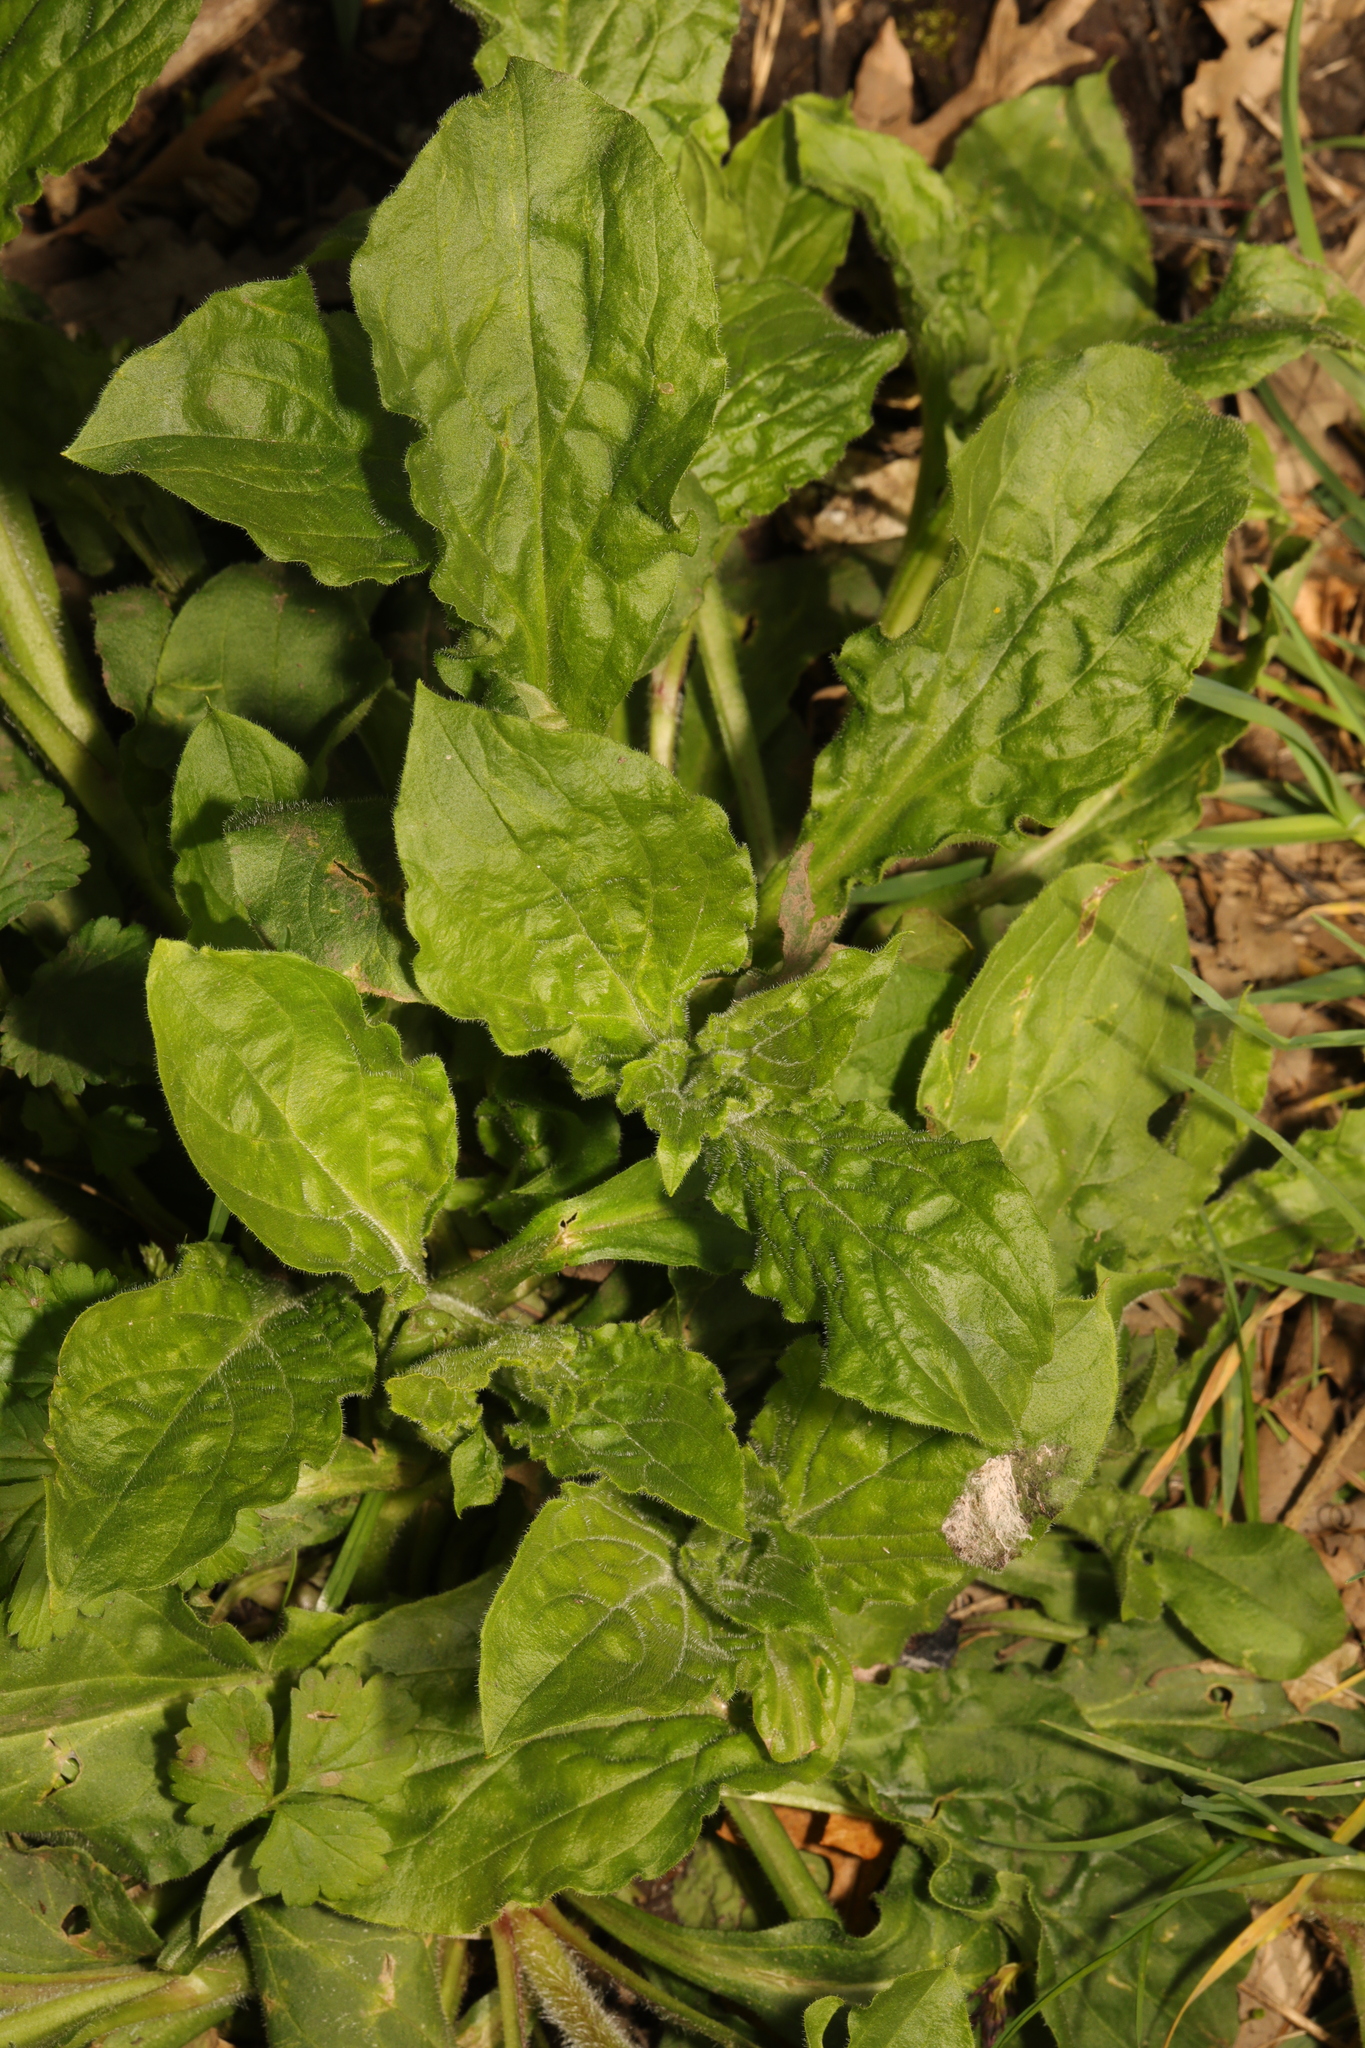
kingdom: Plantae
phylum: Tracheophyta
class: Magnoliopsida
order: Caryophyllales
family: Caryophyllaceae
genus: Silene
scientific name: Silene dioica
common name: Red campion
